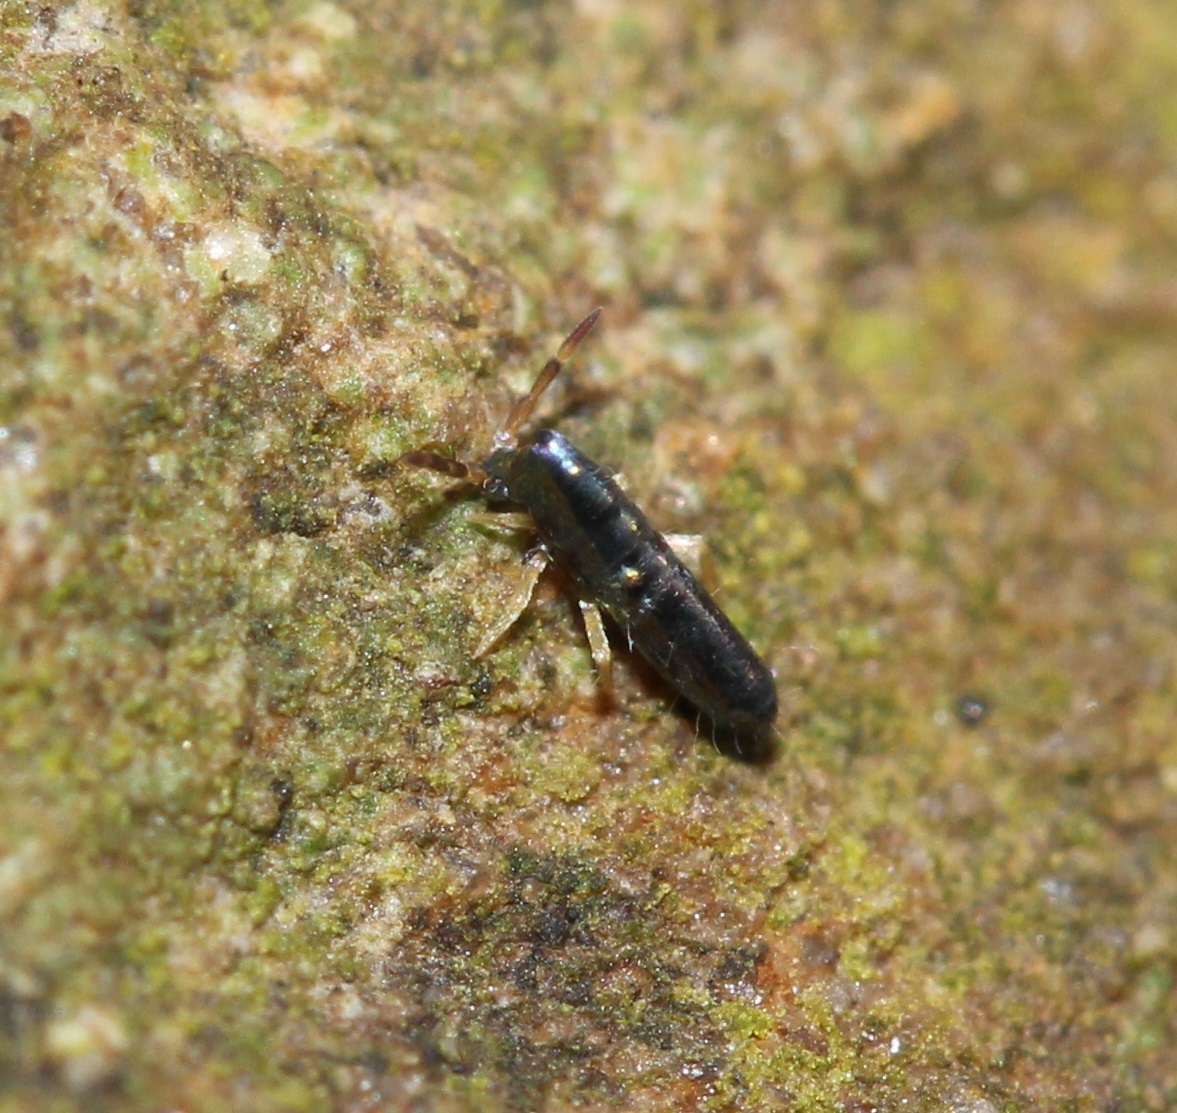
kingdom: Animalia
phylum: Arthropoda
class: Collembola
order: Entomobryomorpha
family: Entomobryidae
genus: Lepidocyrtus
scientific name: Lepidocyrtus paradoxus
